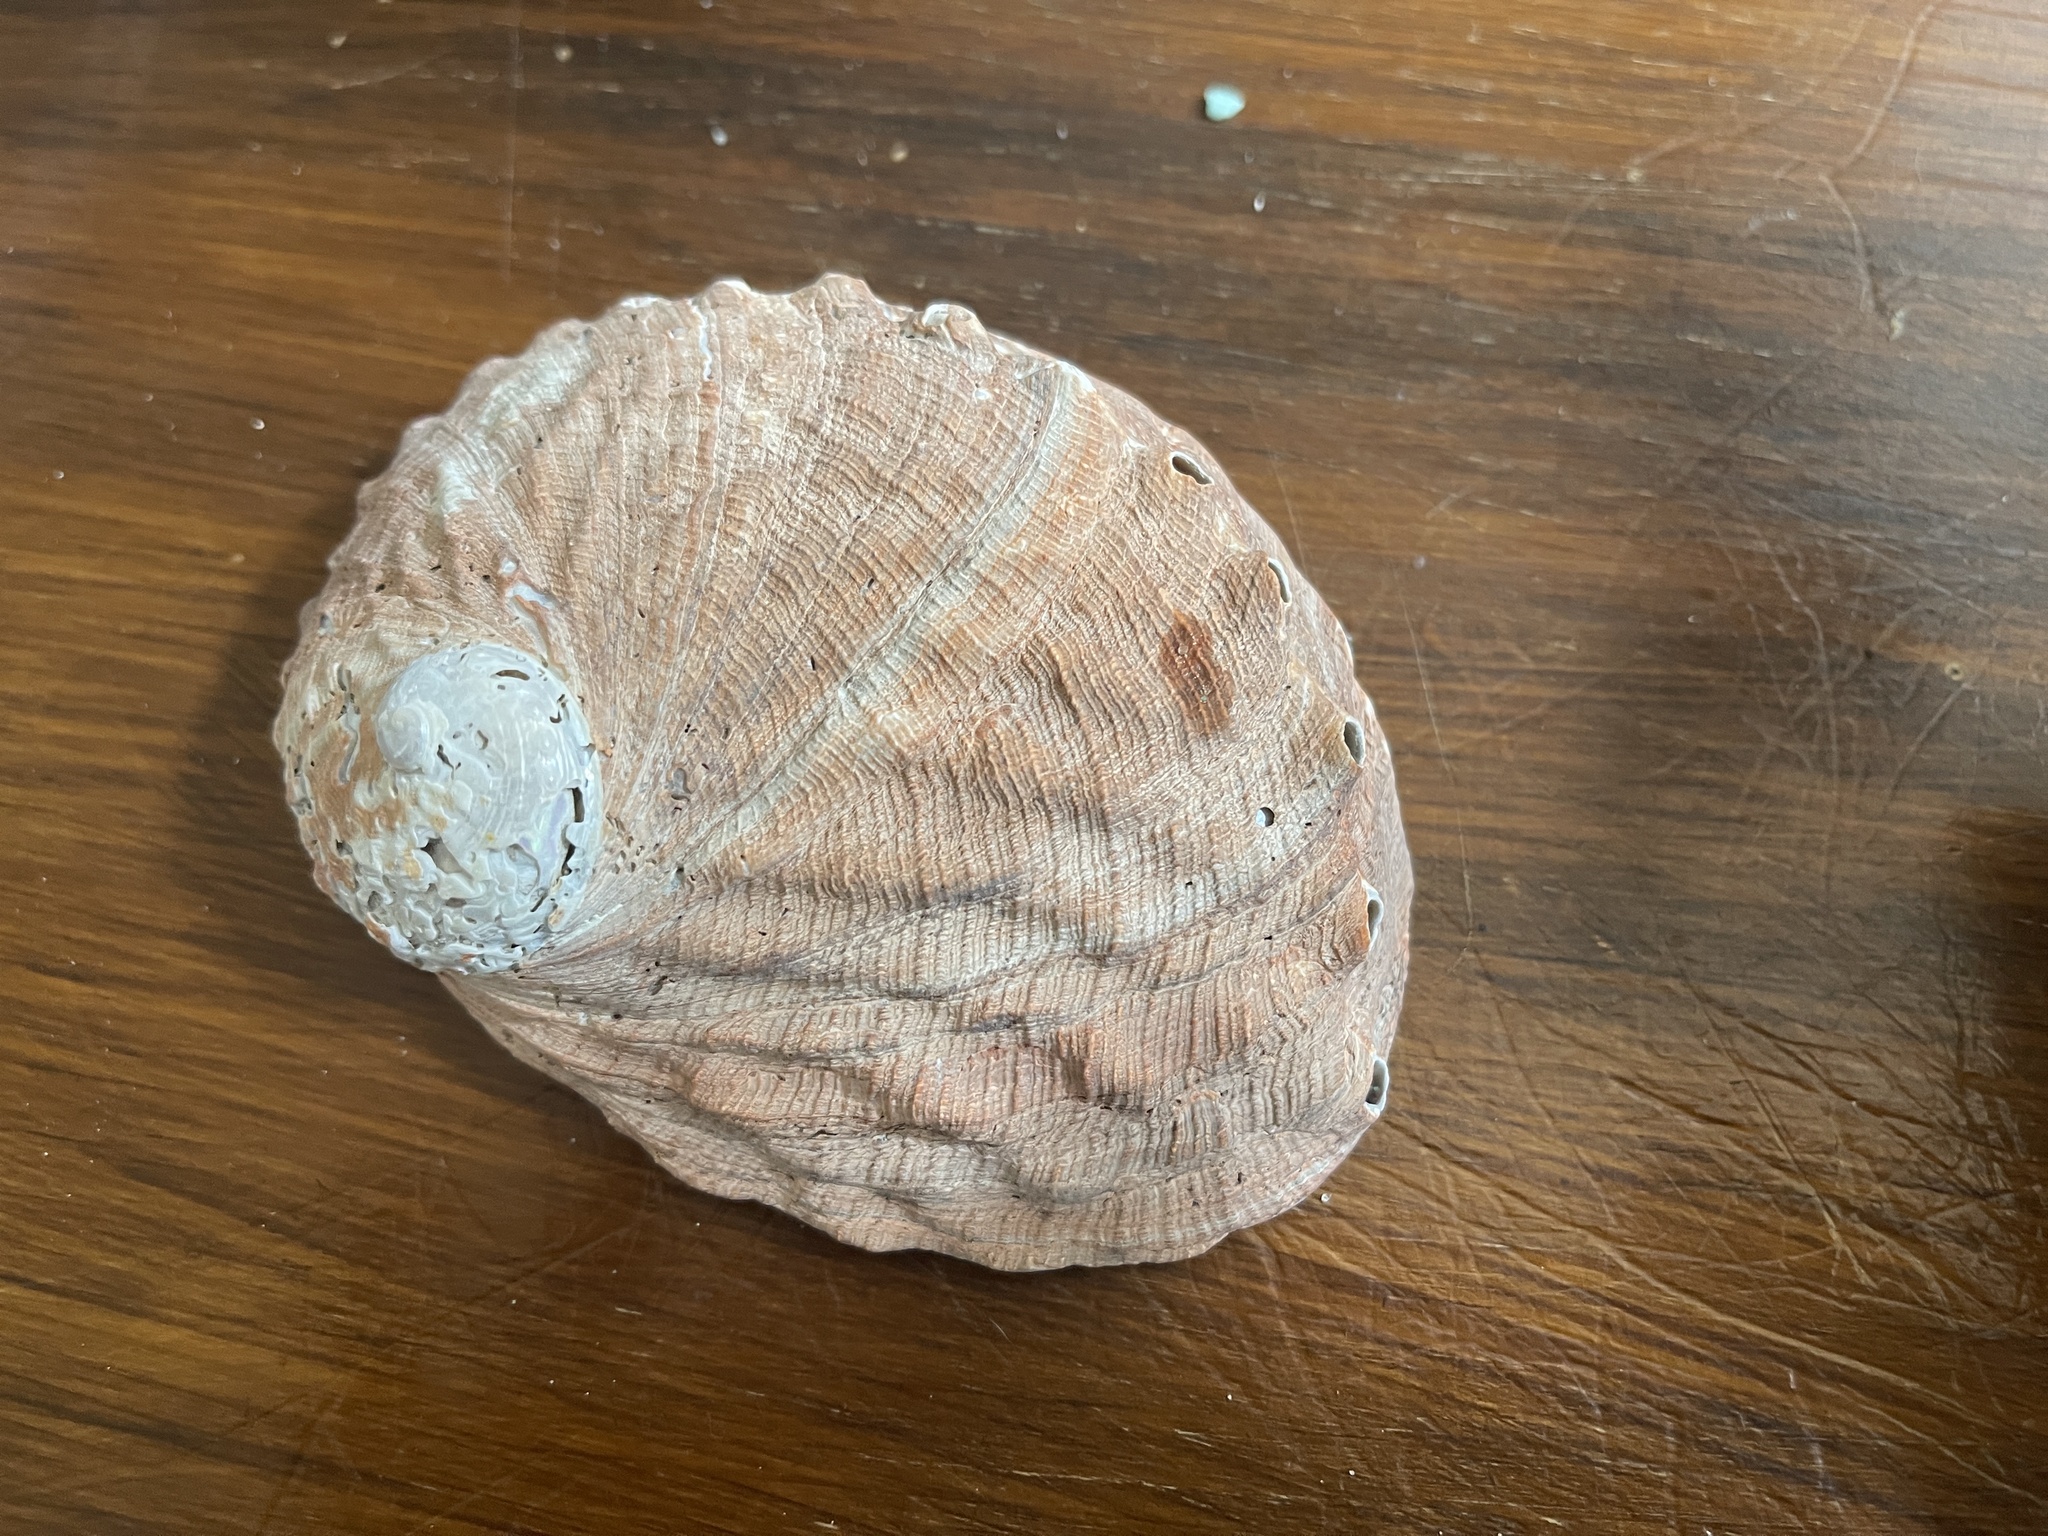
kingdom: Animalia
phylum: Mollusca
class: Gastropoda
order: Lepetellida
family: Haliotidae
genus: Haliotis
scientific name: Haliotis rubra
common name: Blacklip abalone
